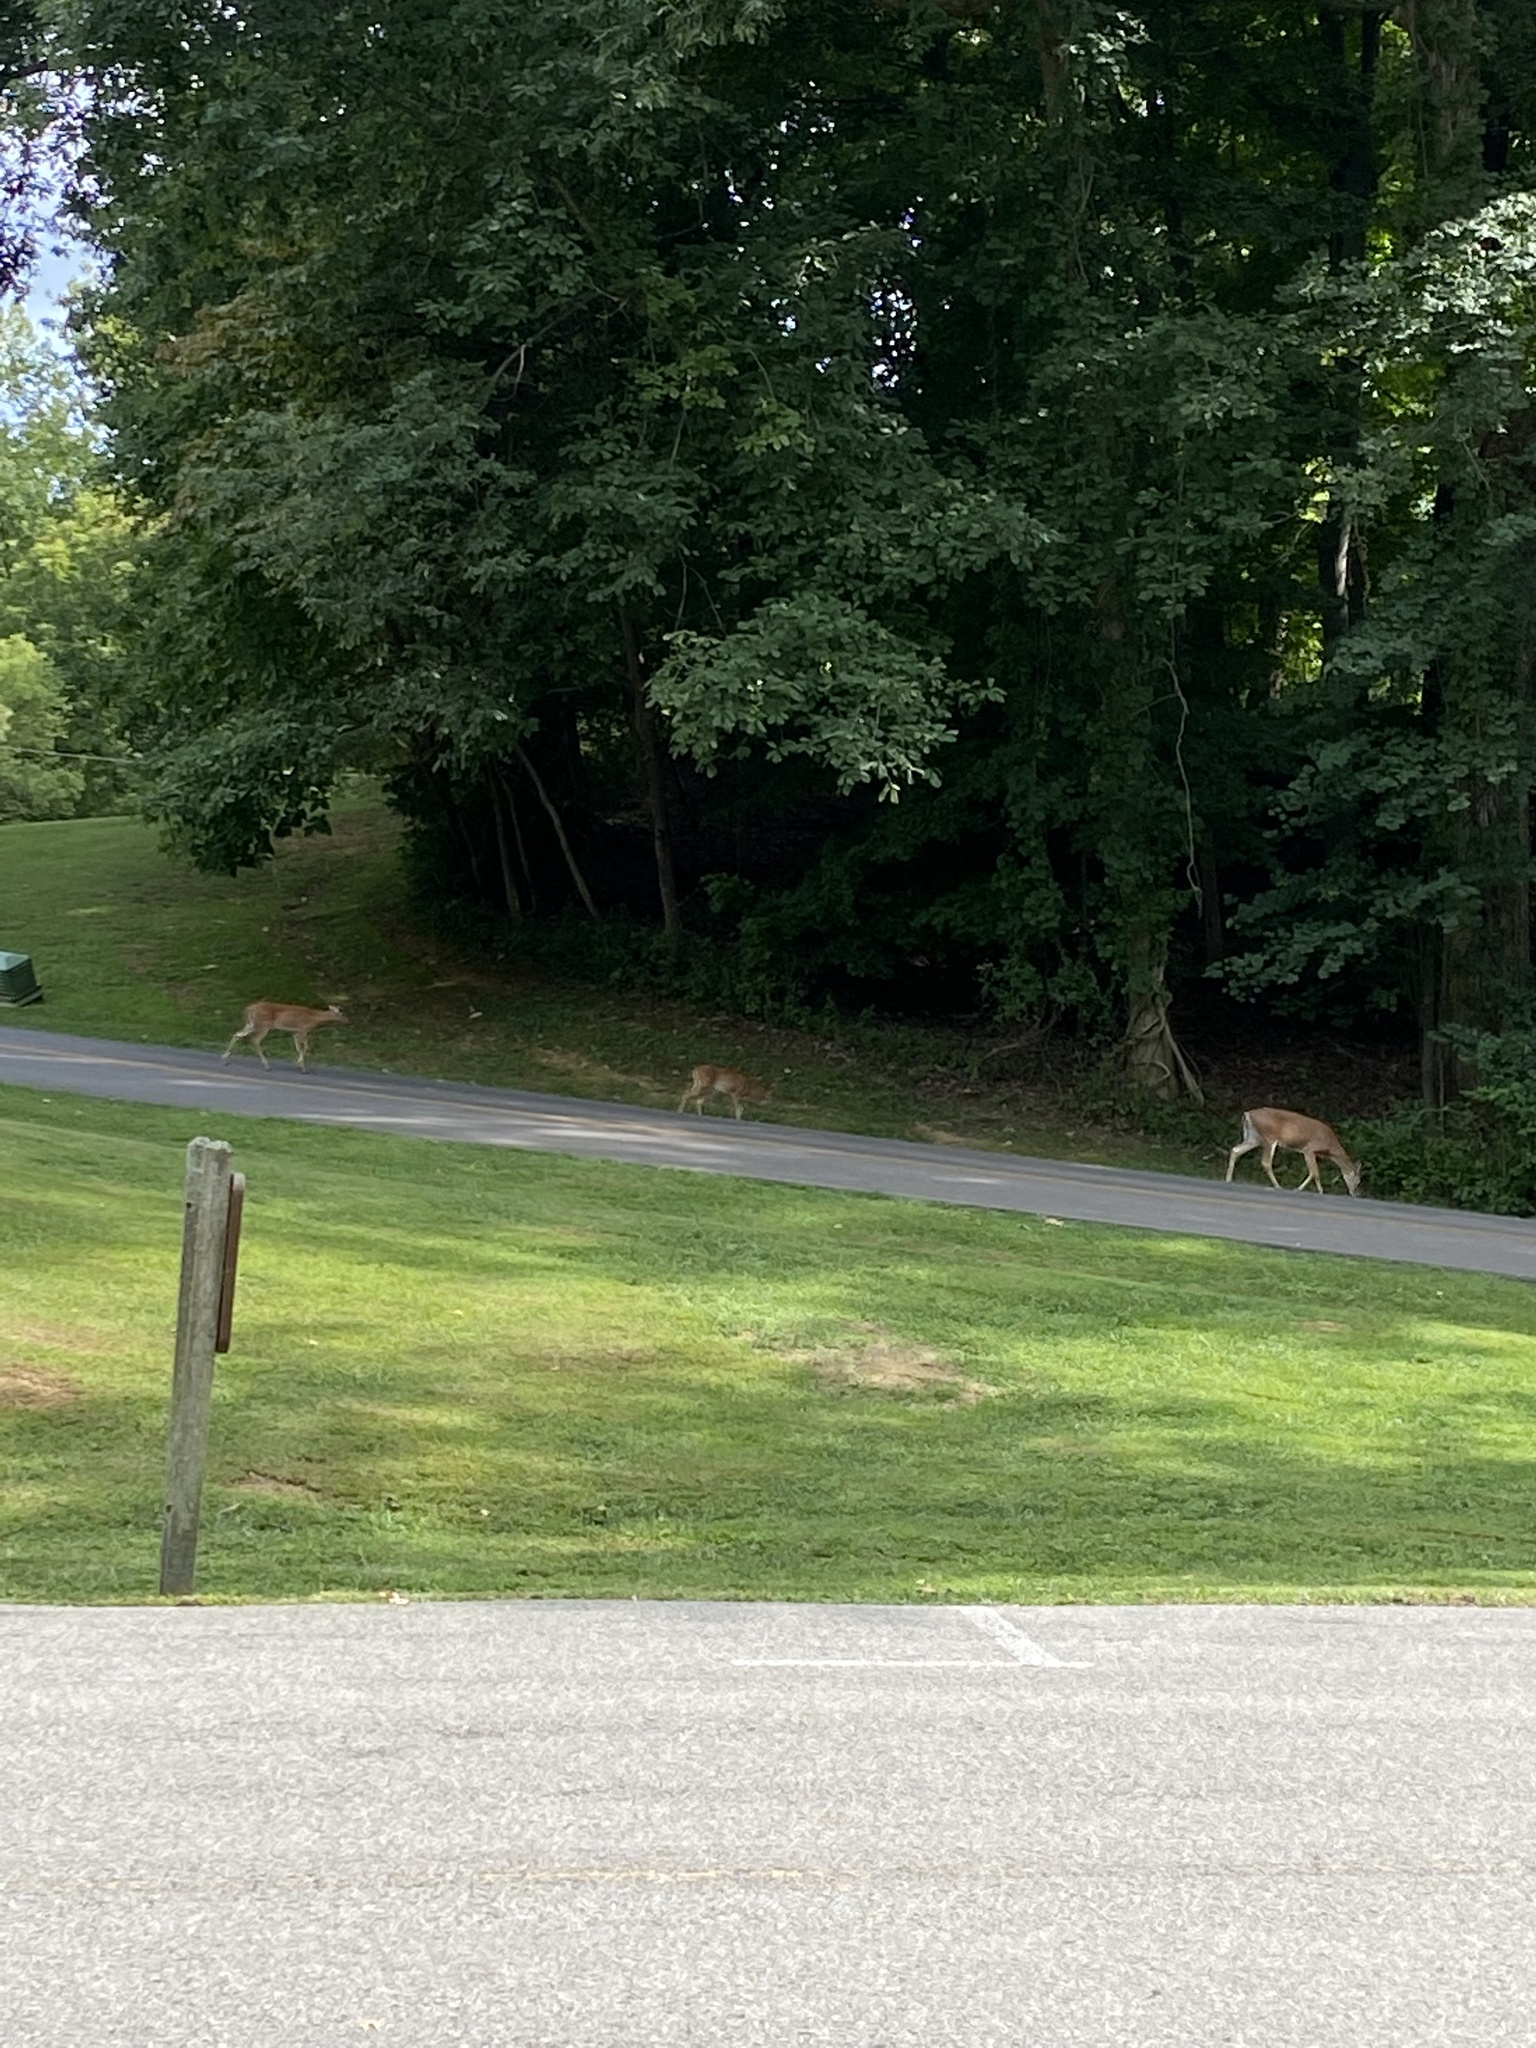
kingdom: Animalia
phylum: Chordata
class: Mammalia
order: Artiodactyla
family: Cervidae
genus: Odocoileus
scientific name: Odocoileus virginianus
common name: White-tailed deer
